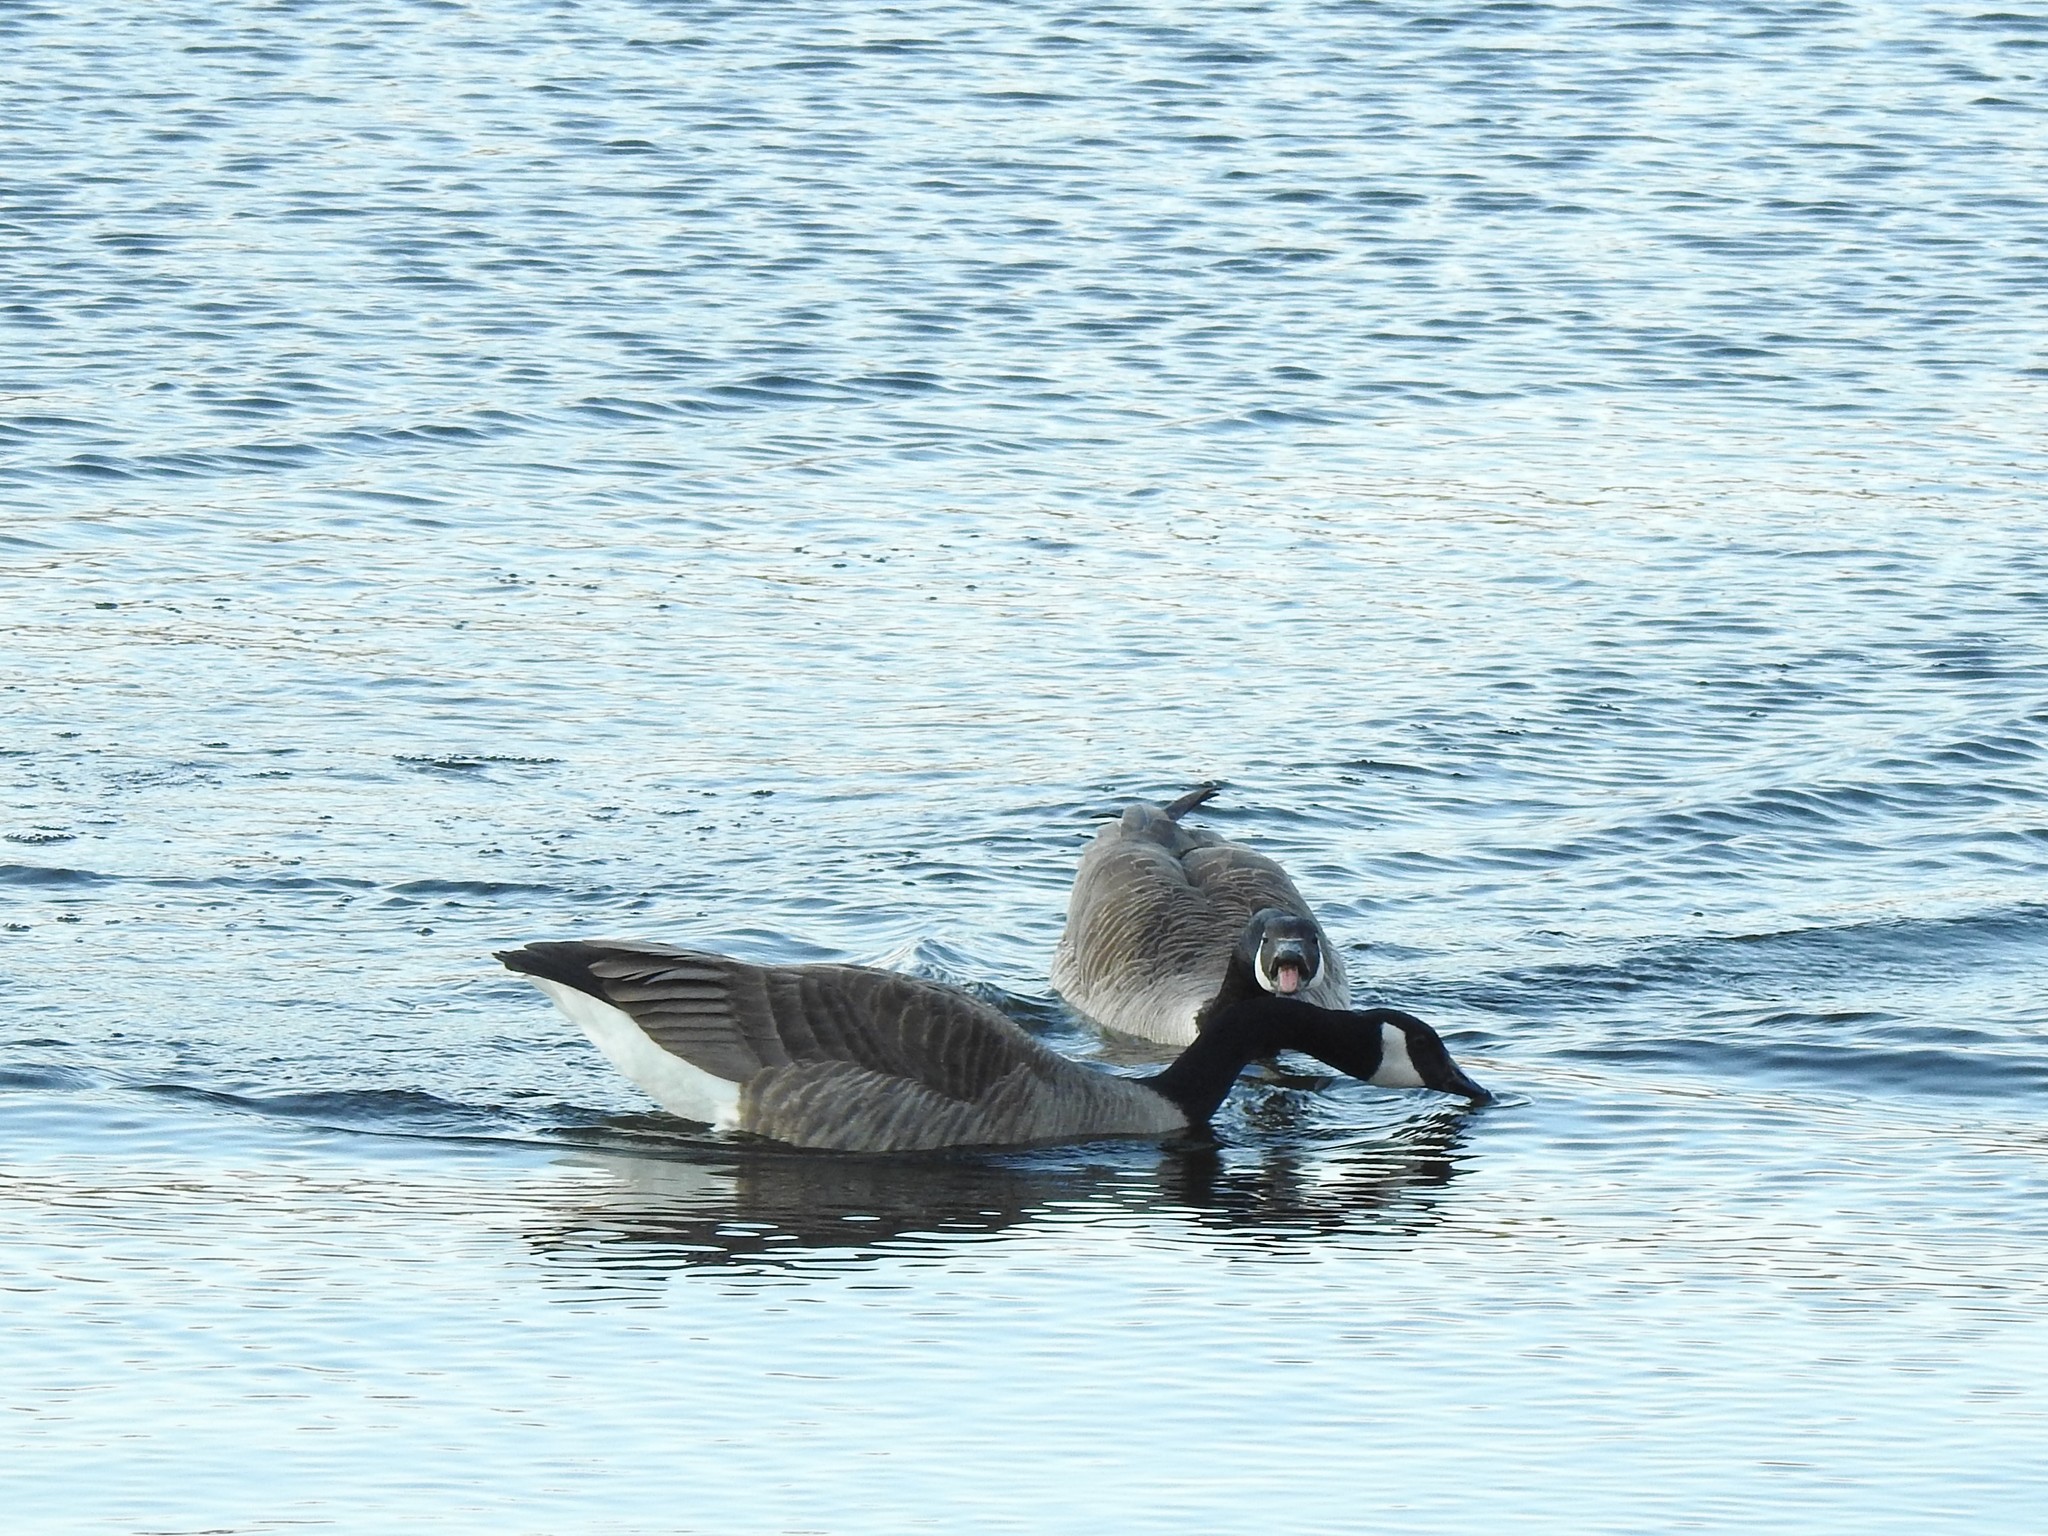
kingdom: Animalia
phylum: Chordata
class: Aves
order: Anseriformes
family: Anatidae
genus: Branta
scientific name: Branta canadensis
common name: Canada goose
